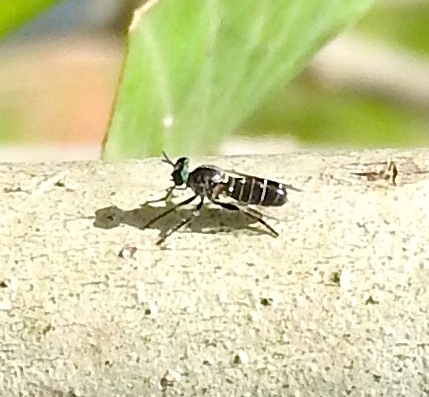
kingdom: Animalia
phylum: Arthropoda
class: Insecta
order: Diptera
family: Asilidae
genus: Atomosia
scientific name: Atomosia
